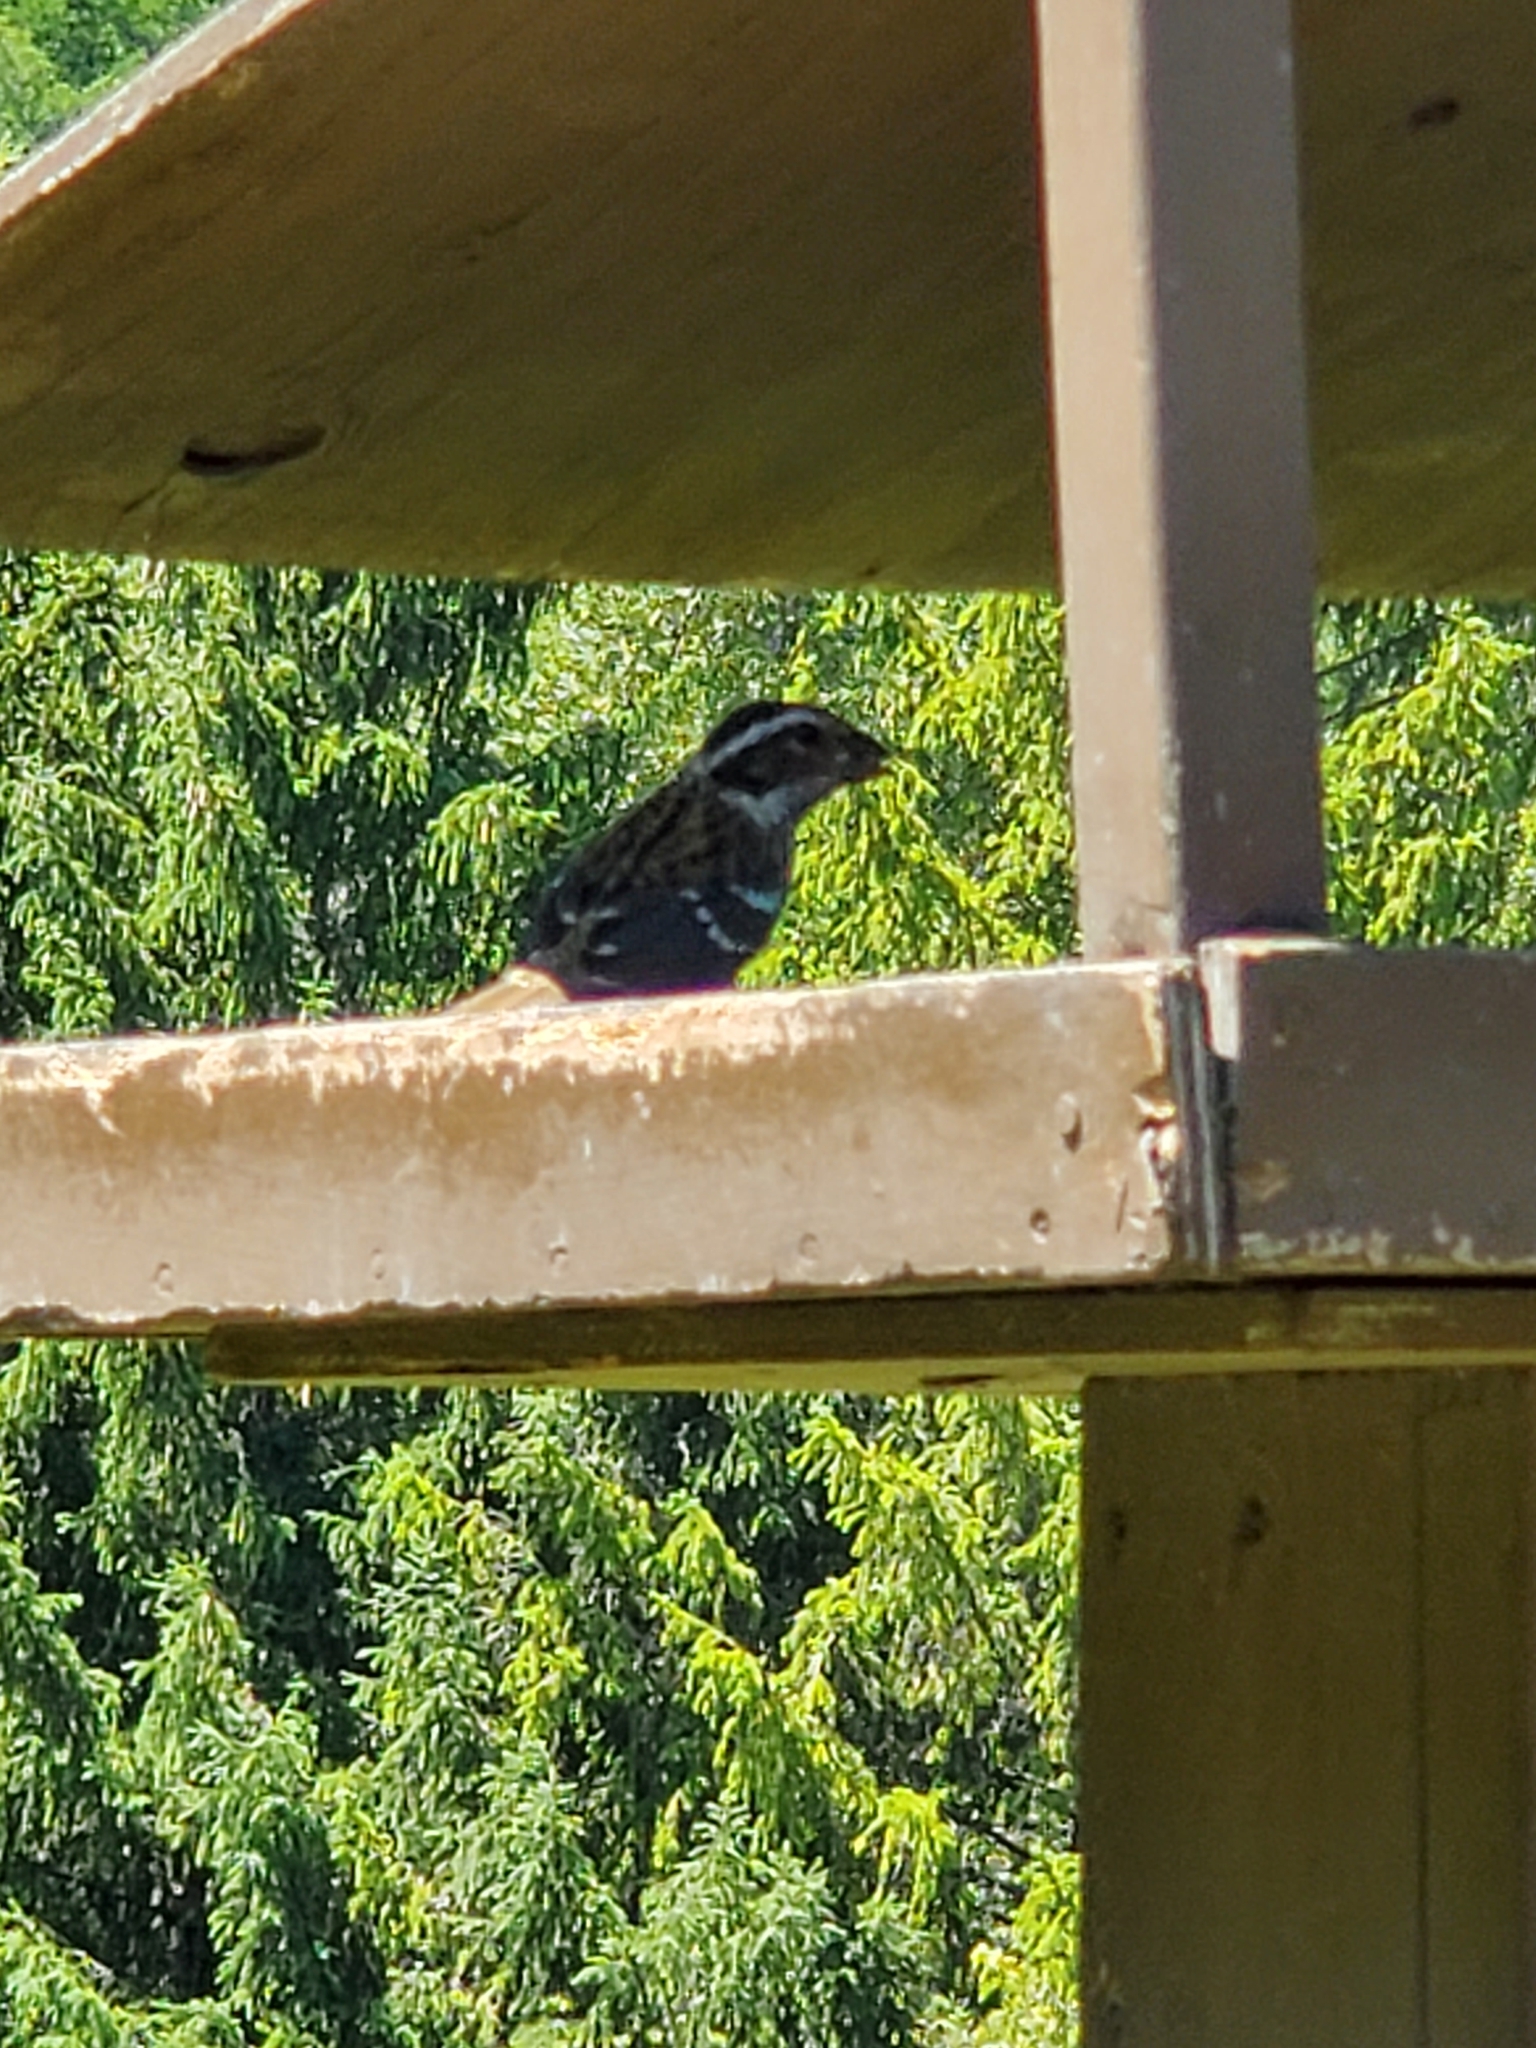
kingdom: Animalia
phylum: Chordata
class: Aves
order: Passeriformes
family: Cardinalidae
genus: Pheucticus
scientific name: Pheucticus ludovicianus
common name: Rose-breasted grosbeak
